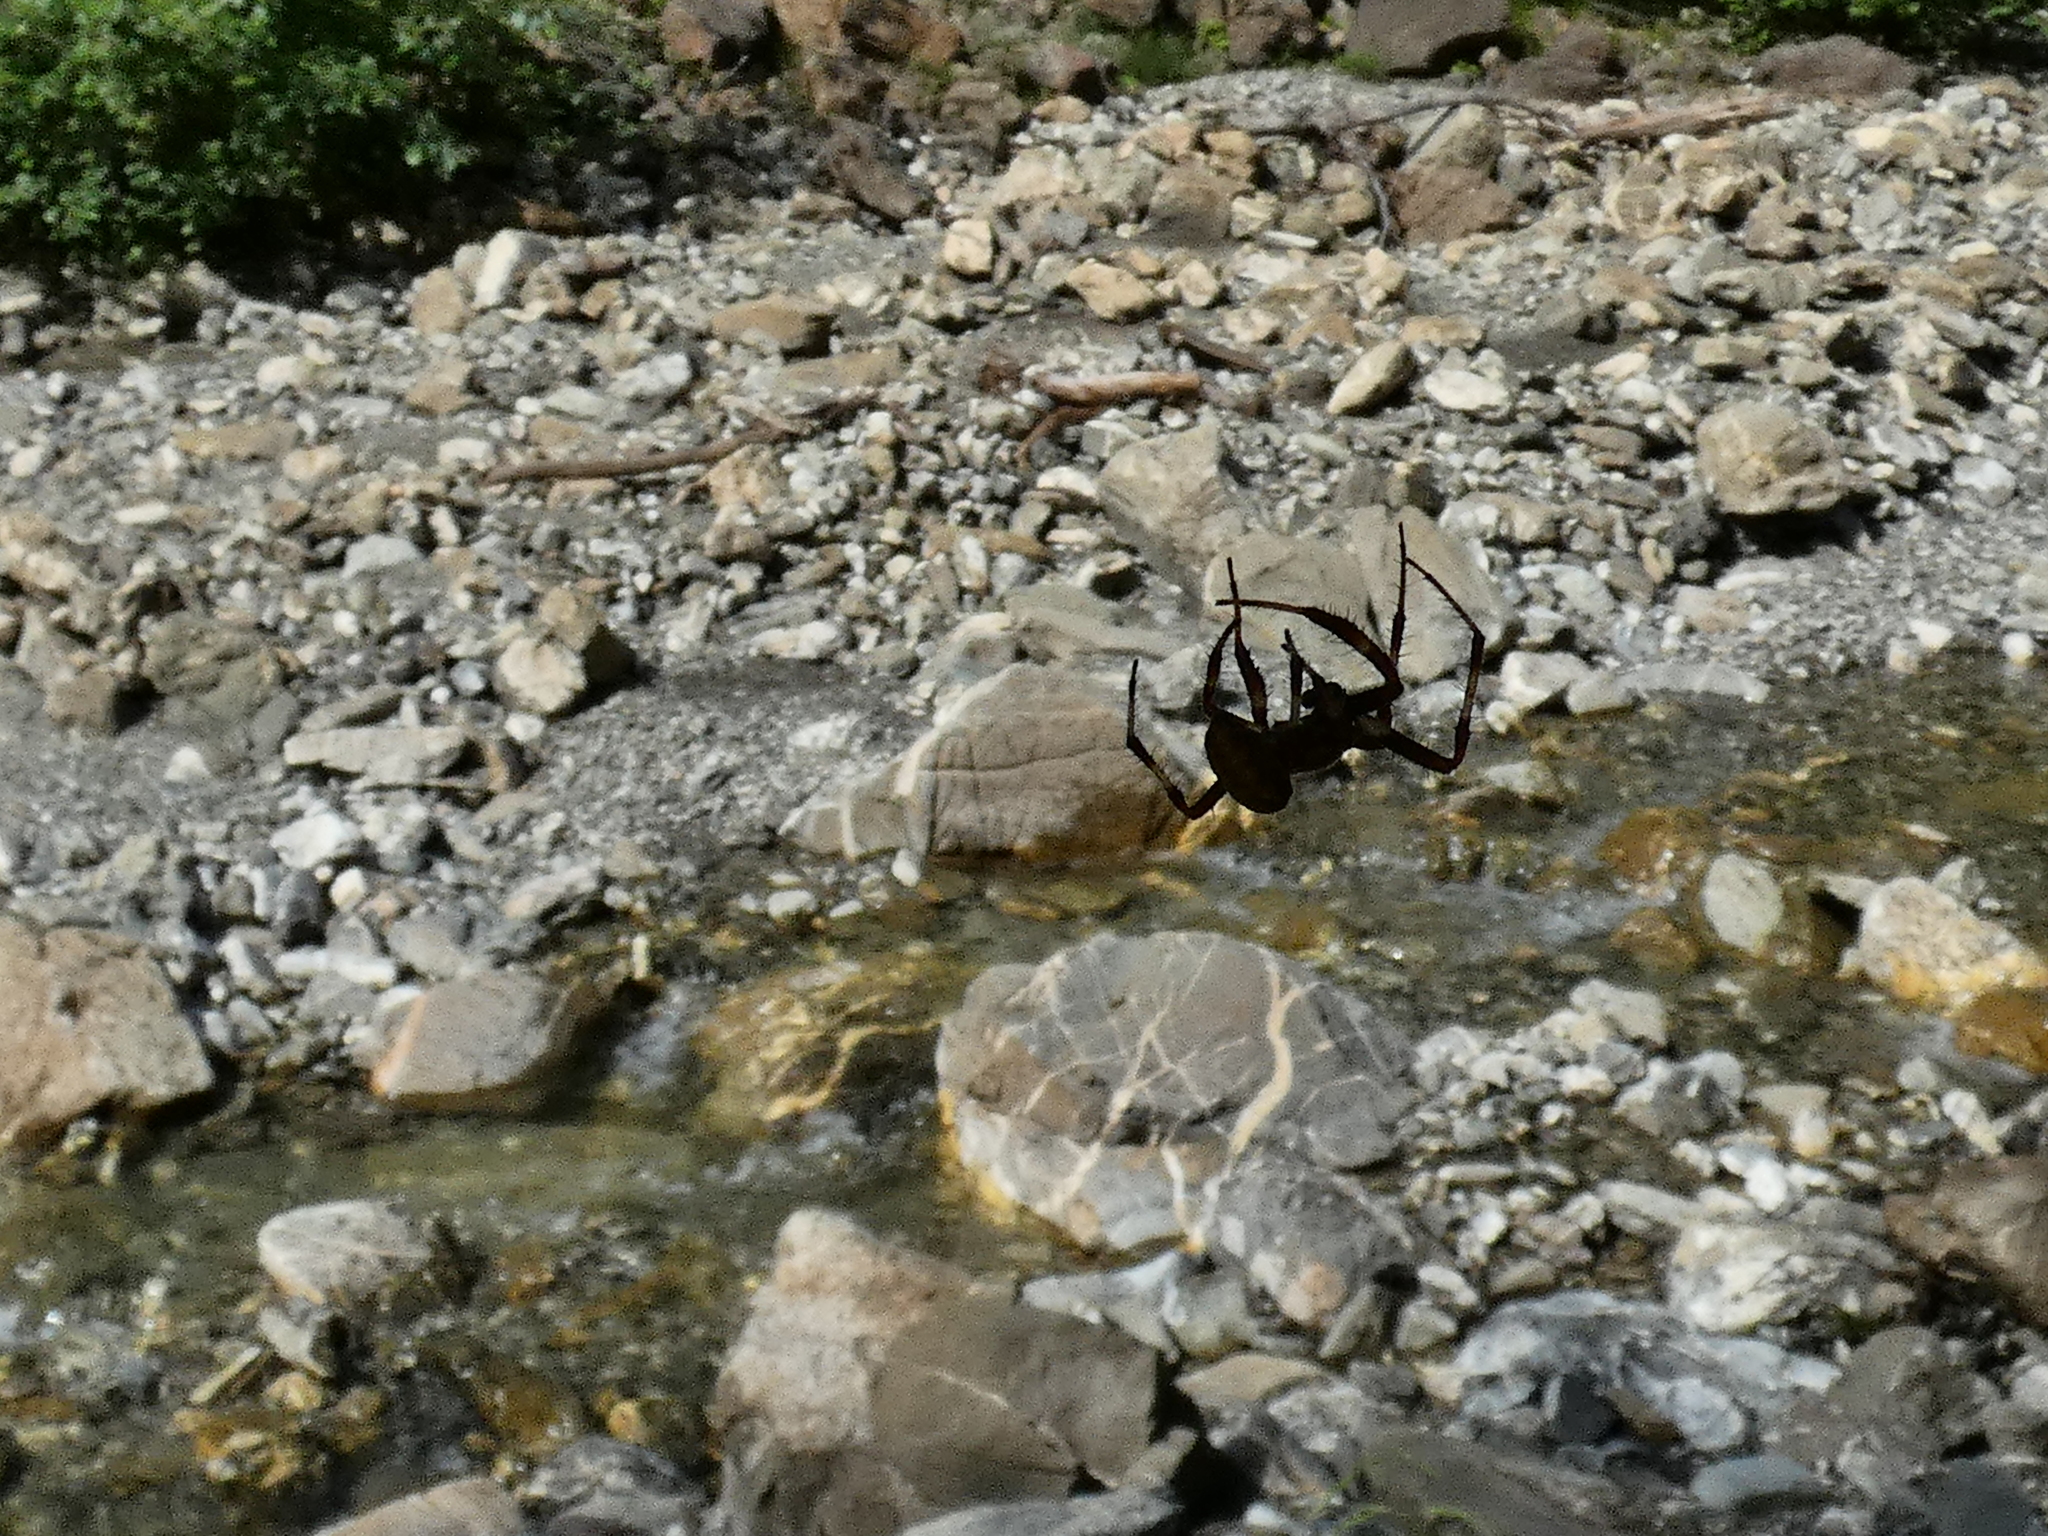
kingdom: Animalia
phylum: Arthropoda
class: Arachnida
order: Araneae
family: Araneidae
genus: Araneus
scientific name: Araneus marmoreus
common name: Marbled orbweaver
